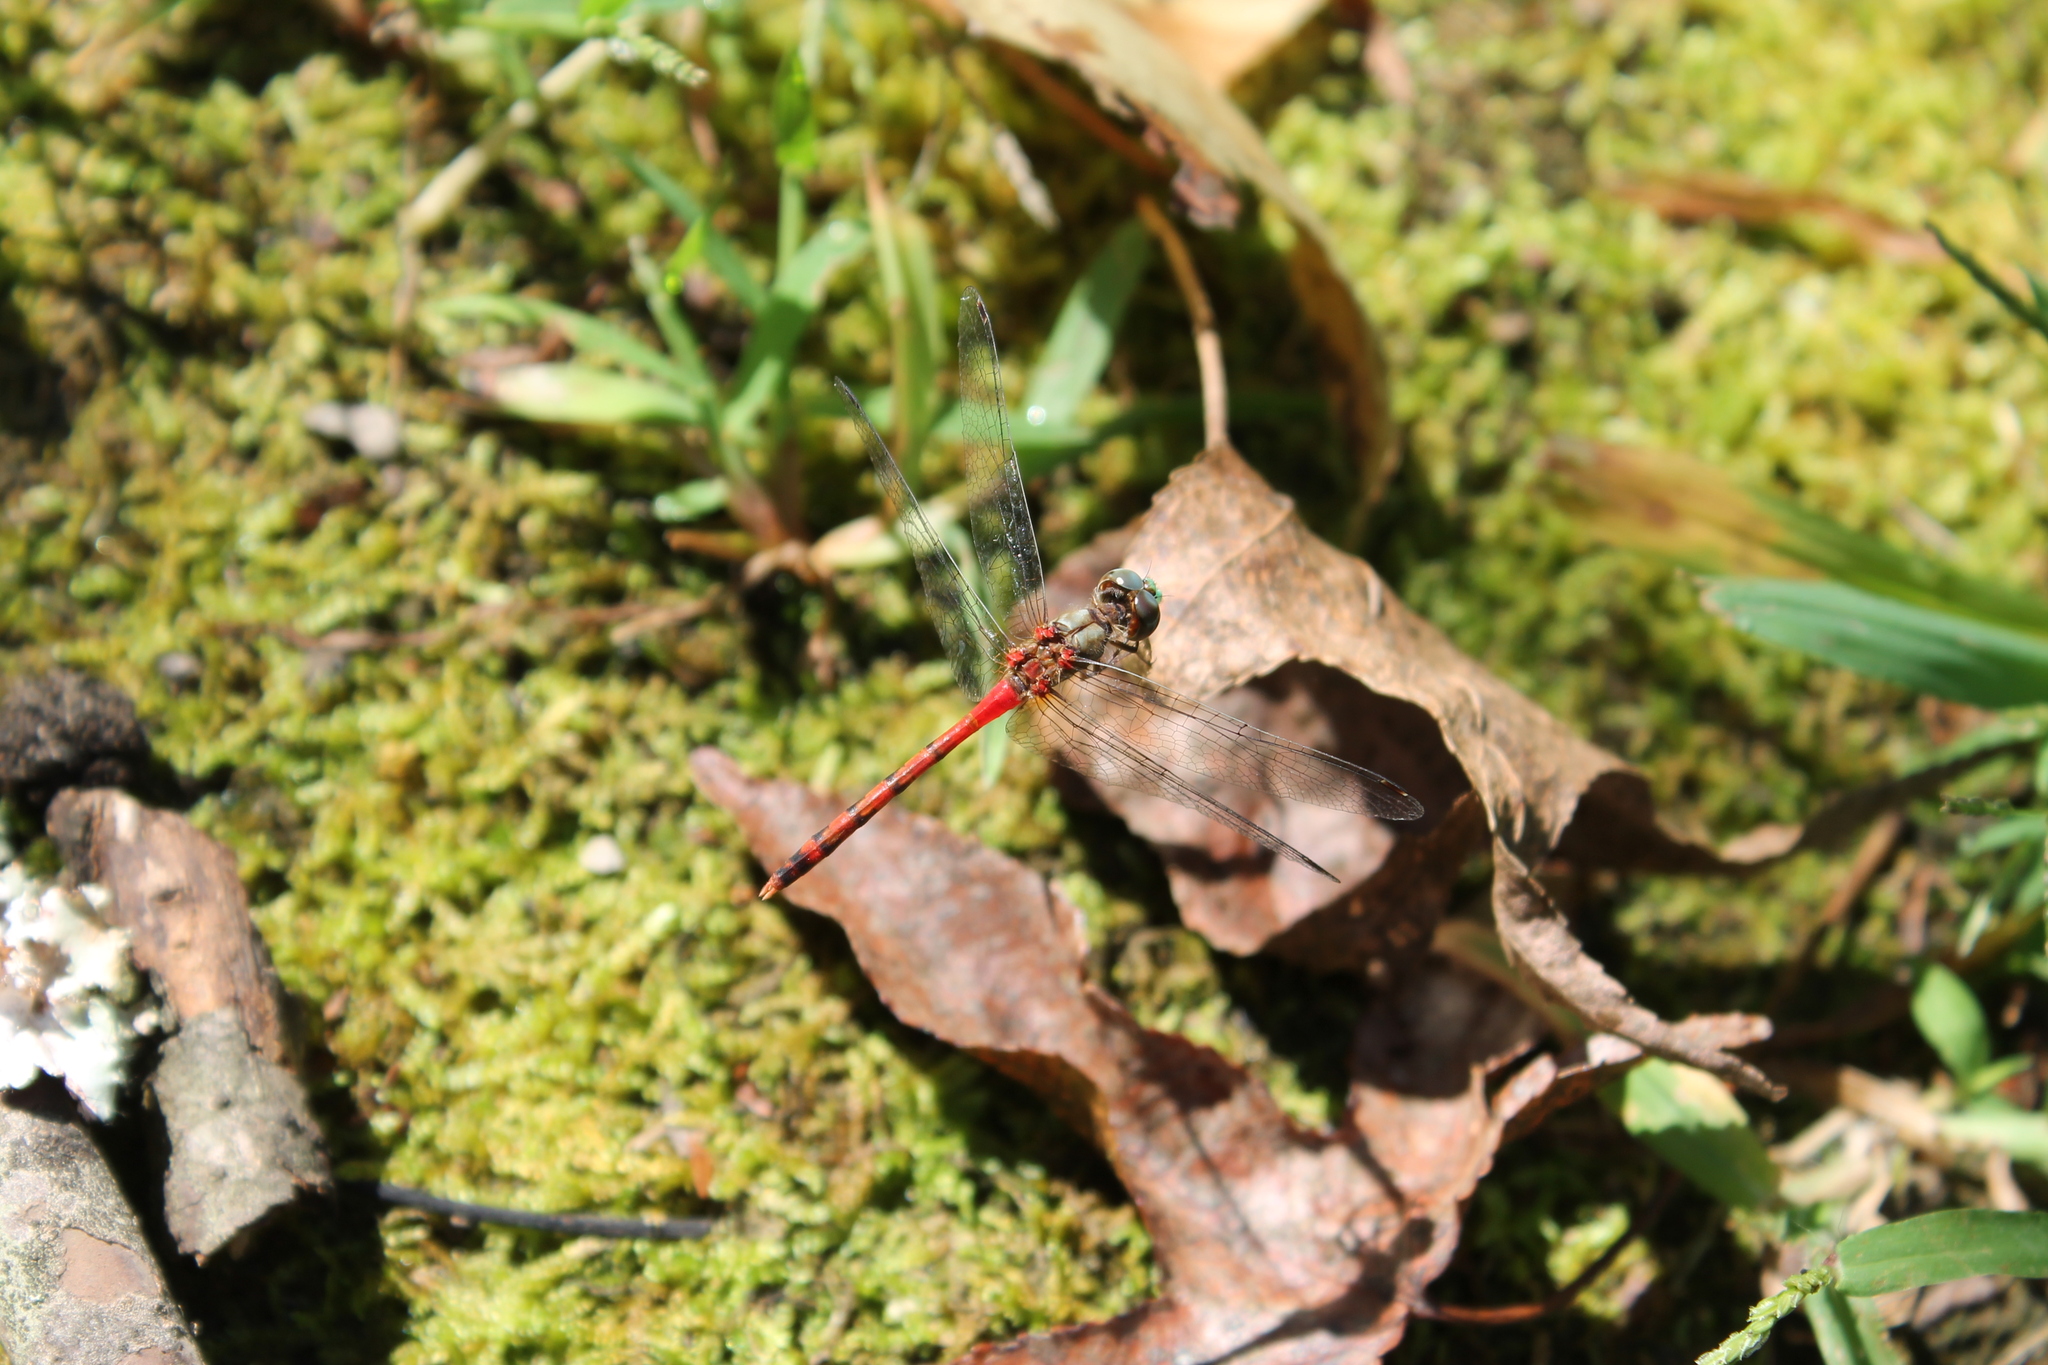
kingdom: Animalia
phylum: Arthropoda
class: Insecta
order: Odonata
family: Libellulidae
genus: Sympetrum
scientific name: Sympetrum ambiguum
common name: Blue-faced meadowhawk
